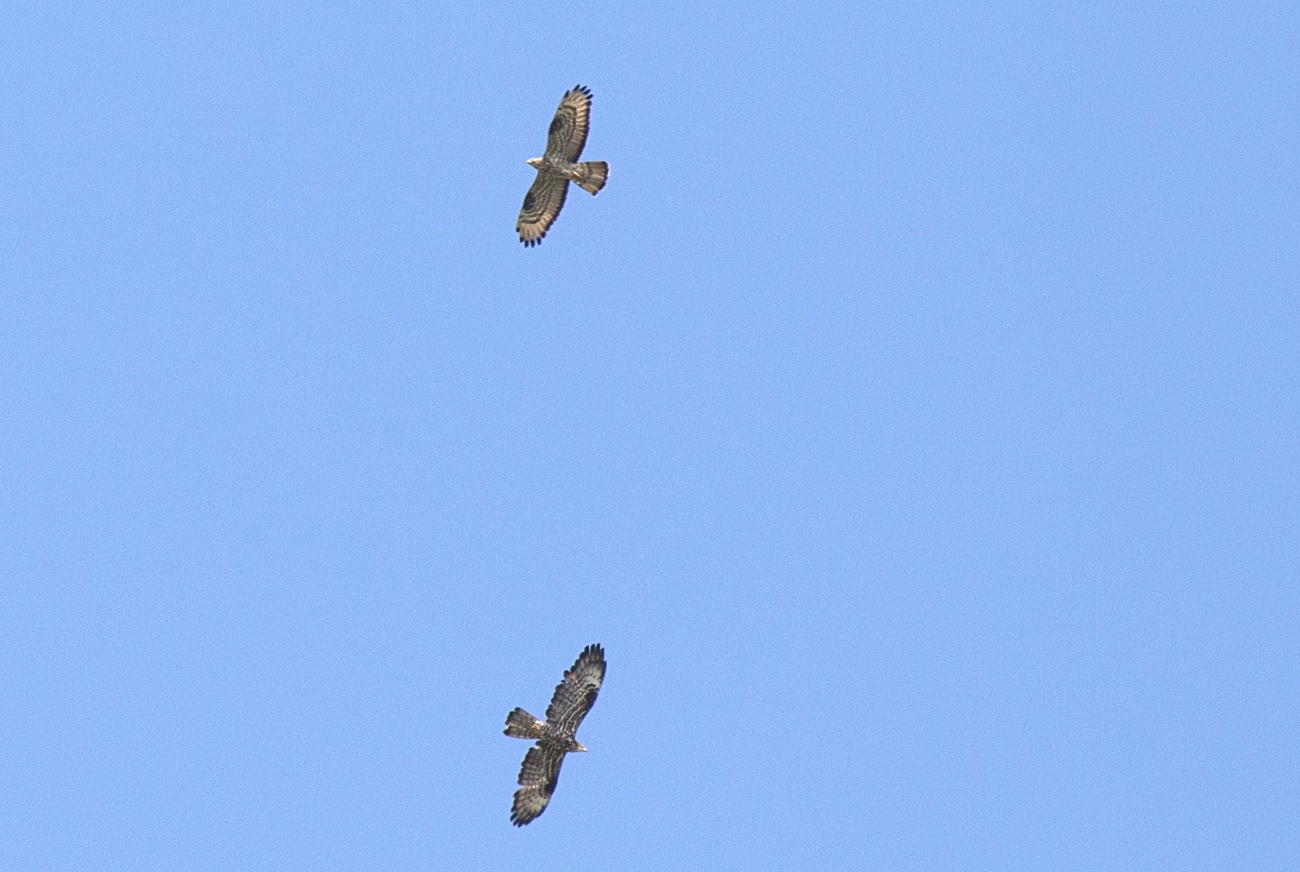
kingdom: Animalia
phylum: Chordata
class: Aves
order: Accipitriformes
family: Accipitridae
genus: Pernis
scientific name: Pernis apivorus
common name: European honey buzzard
